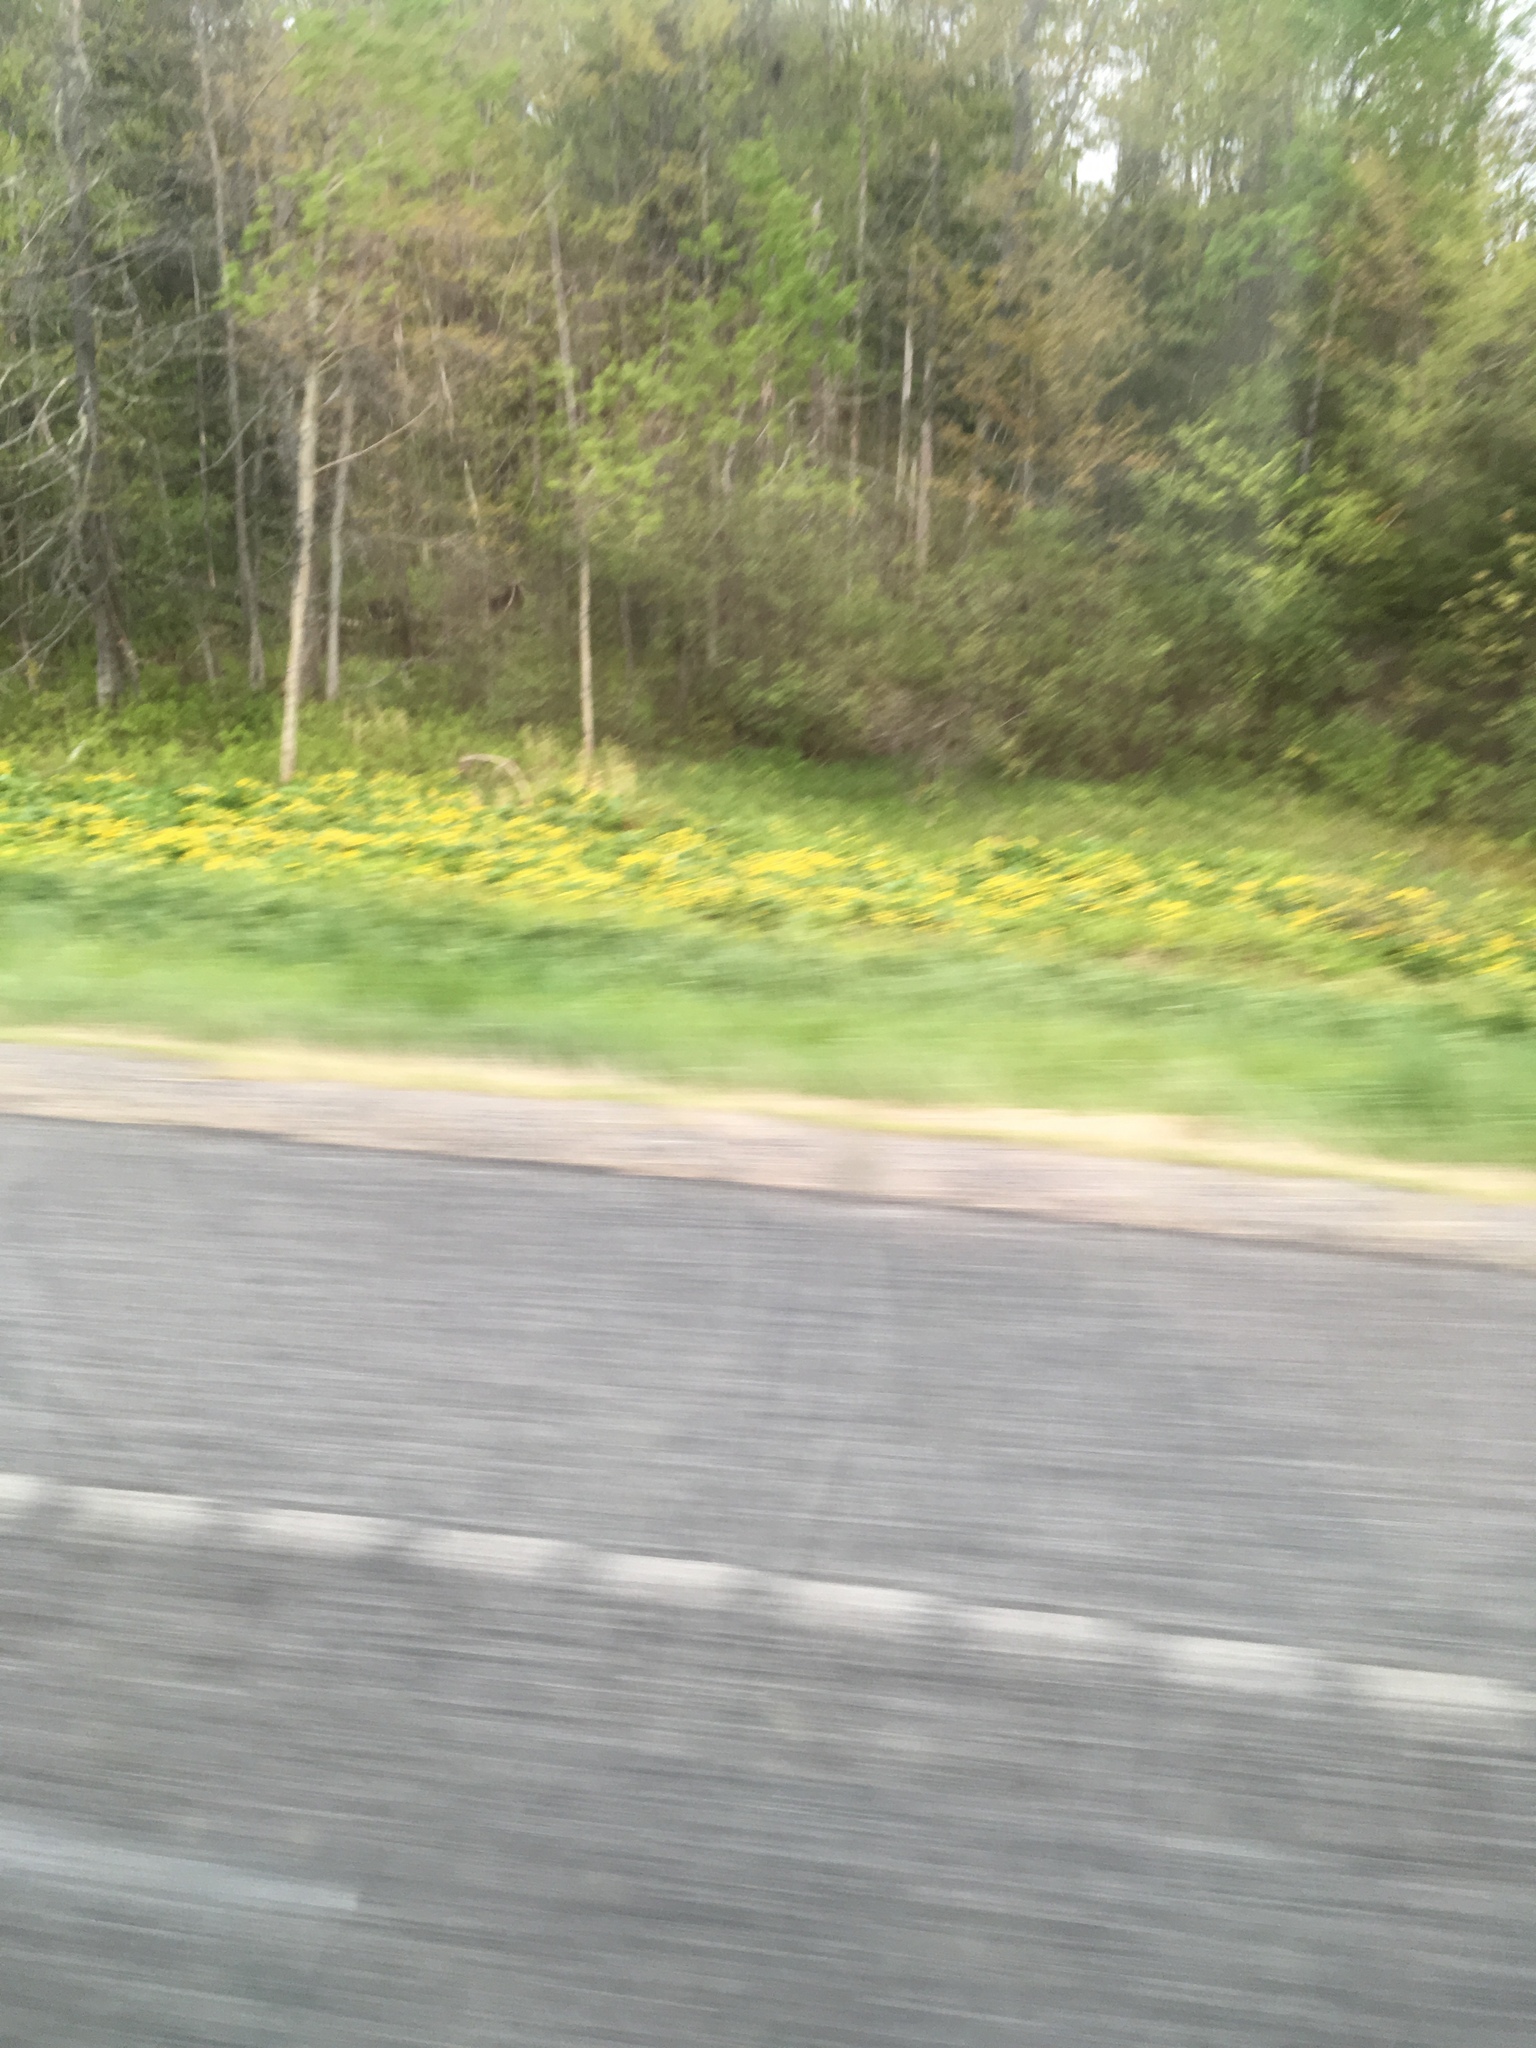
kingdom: Plantae
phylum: Tracheophyta
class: Magnoliopsida
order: Ranunculales
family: Ranunculaceae
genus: Caltha
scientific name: Caltha palustris
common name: Marsh marigold
